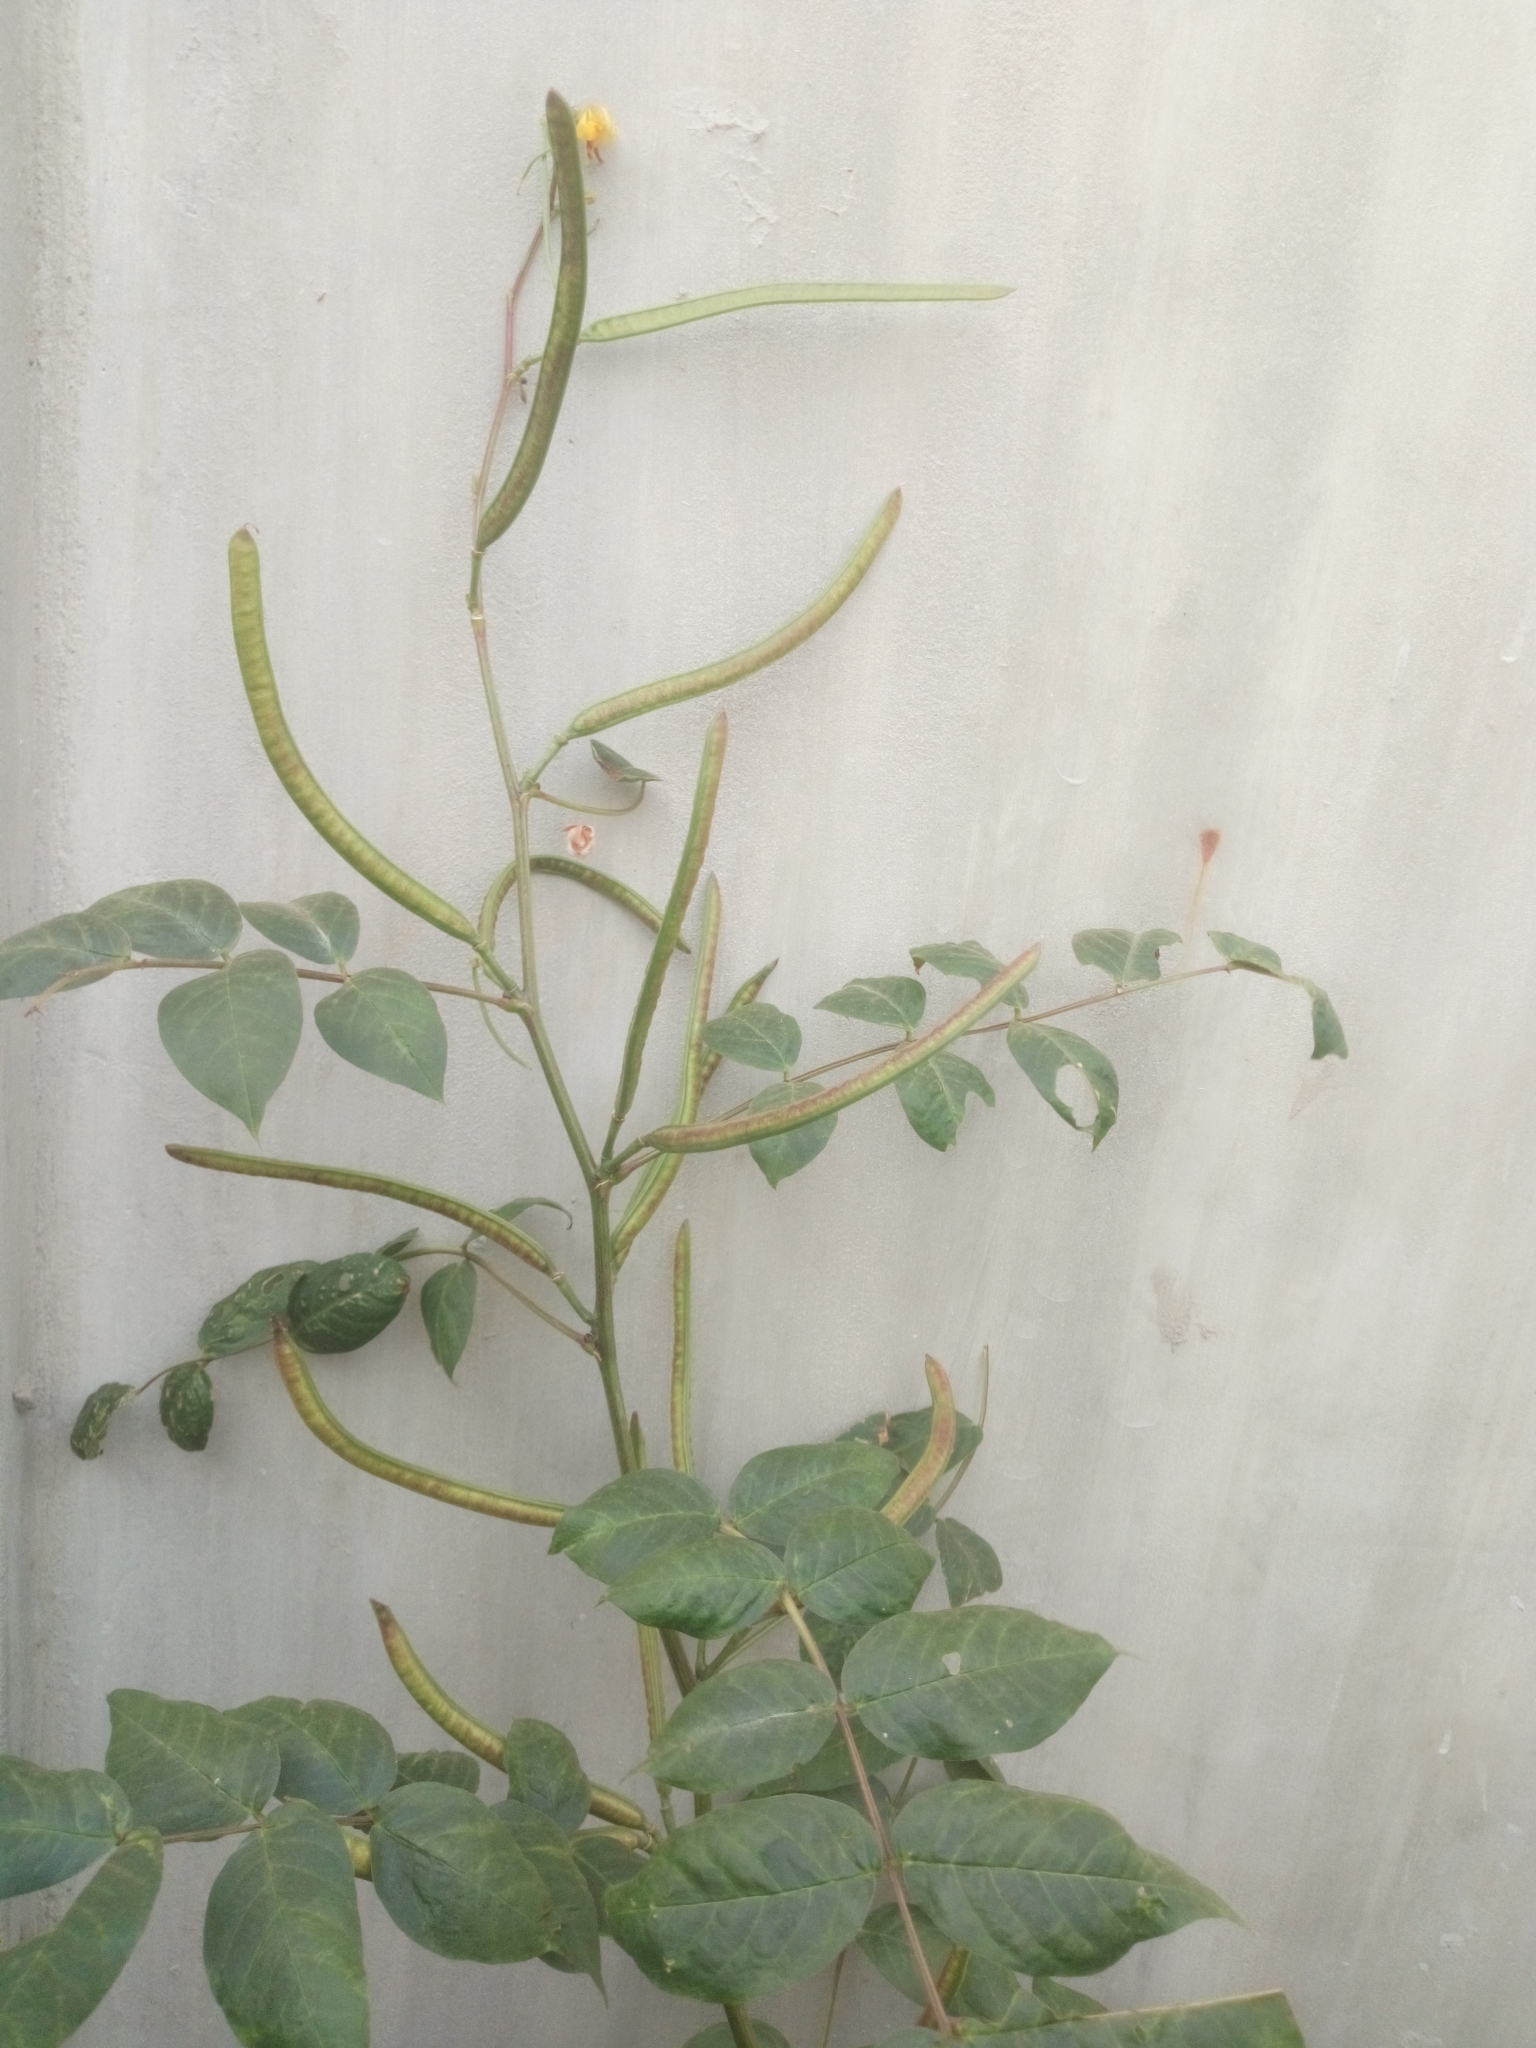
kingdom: Plantae
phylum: Tracheophyta
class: Magnoliopsida
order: Fabales
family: Fabaceae
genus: Senna
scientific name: Senna occidentalis
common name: Septicweed
